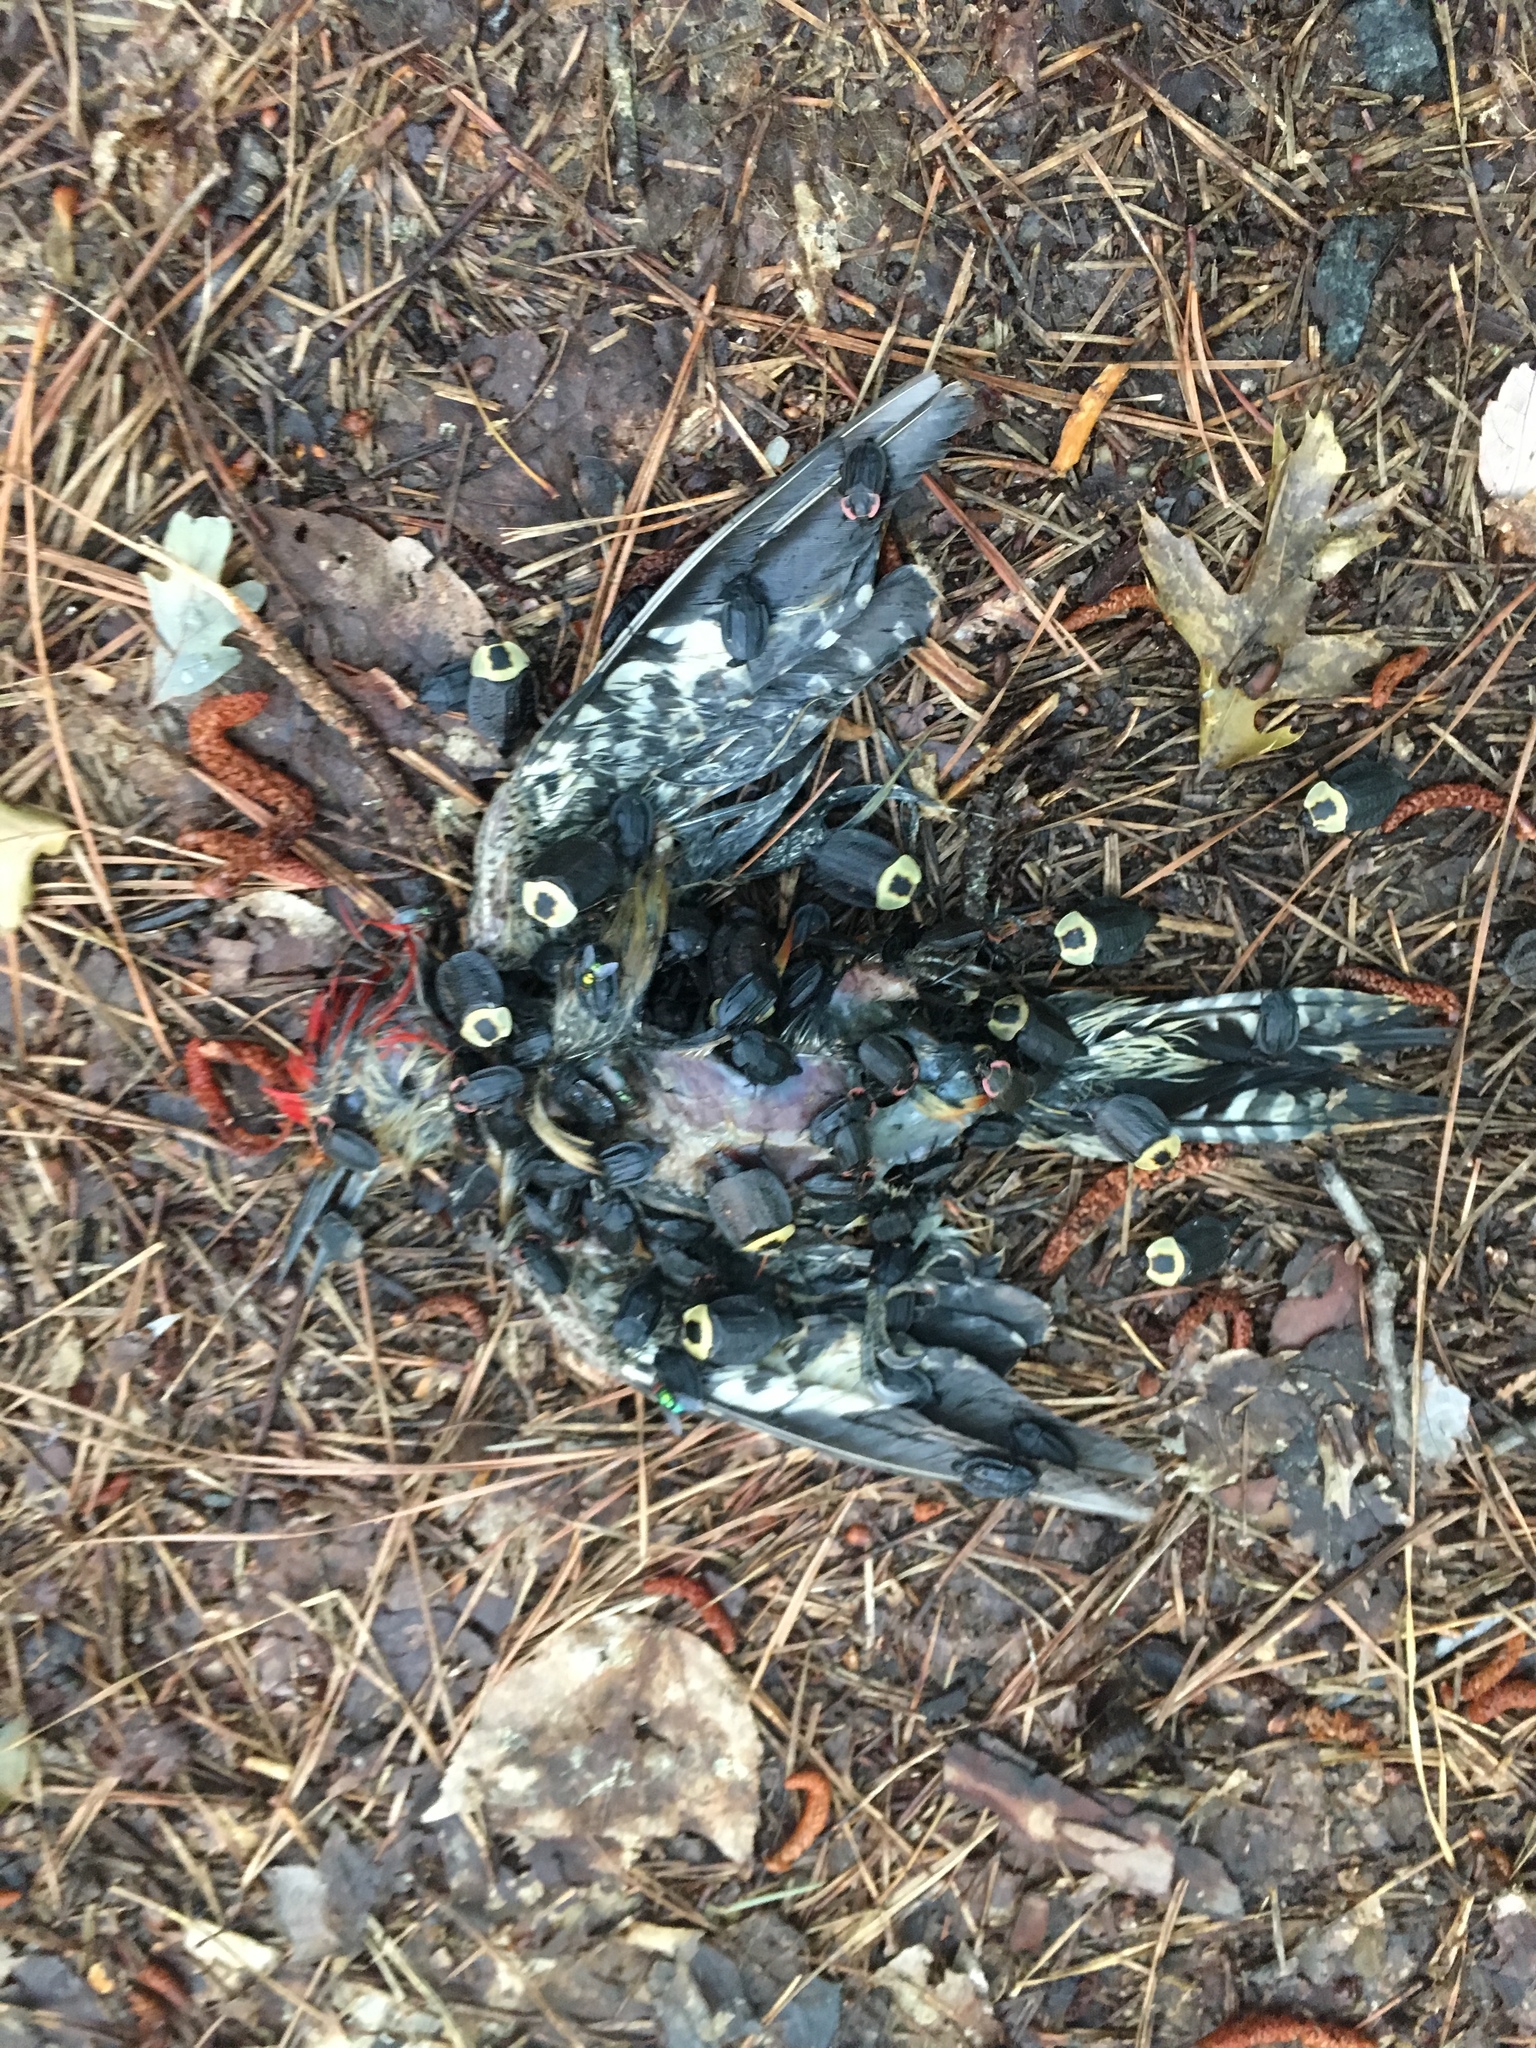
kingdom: Animalia
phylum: Arthropoda
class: Insecta
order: Coleoptera
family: Staphylinidae
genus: Oiceoptoma
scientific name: Oiceoptoma noveboracense
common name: Margined carrion beetle
